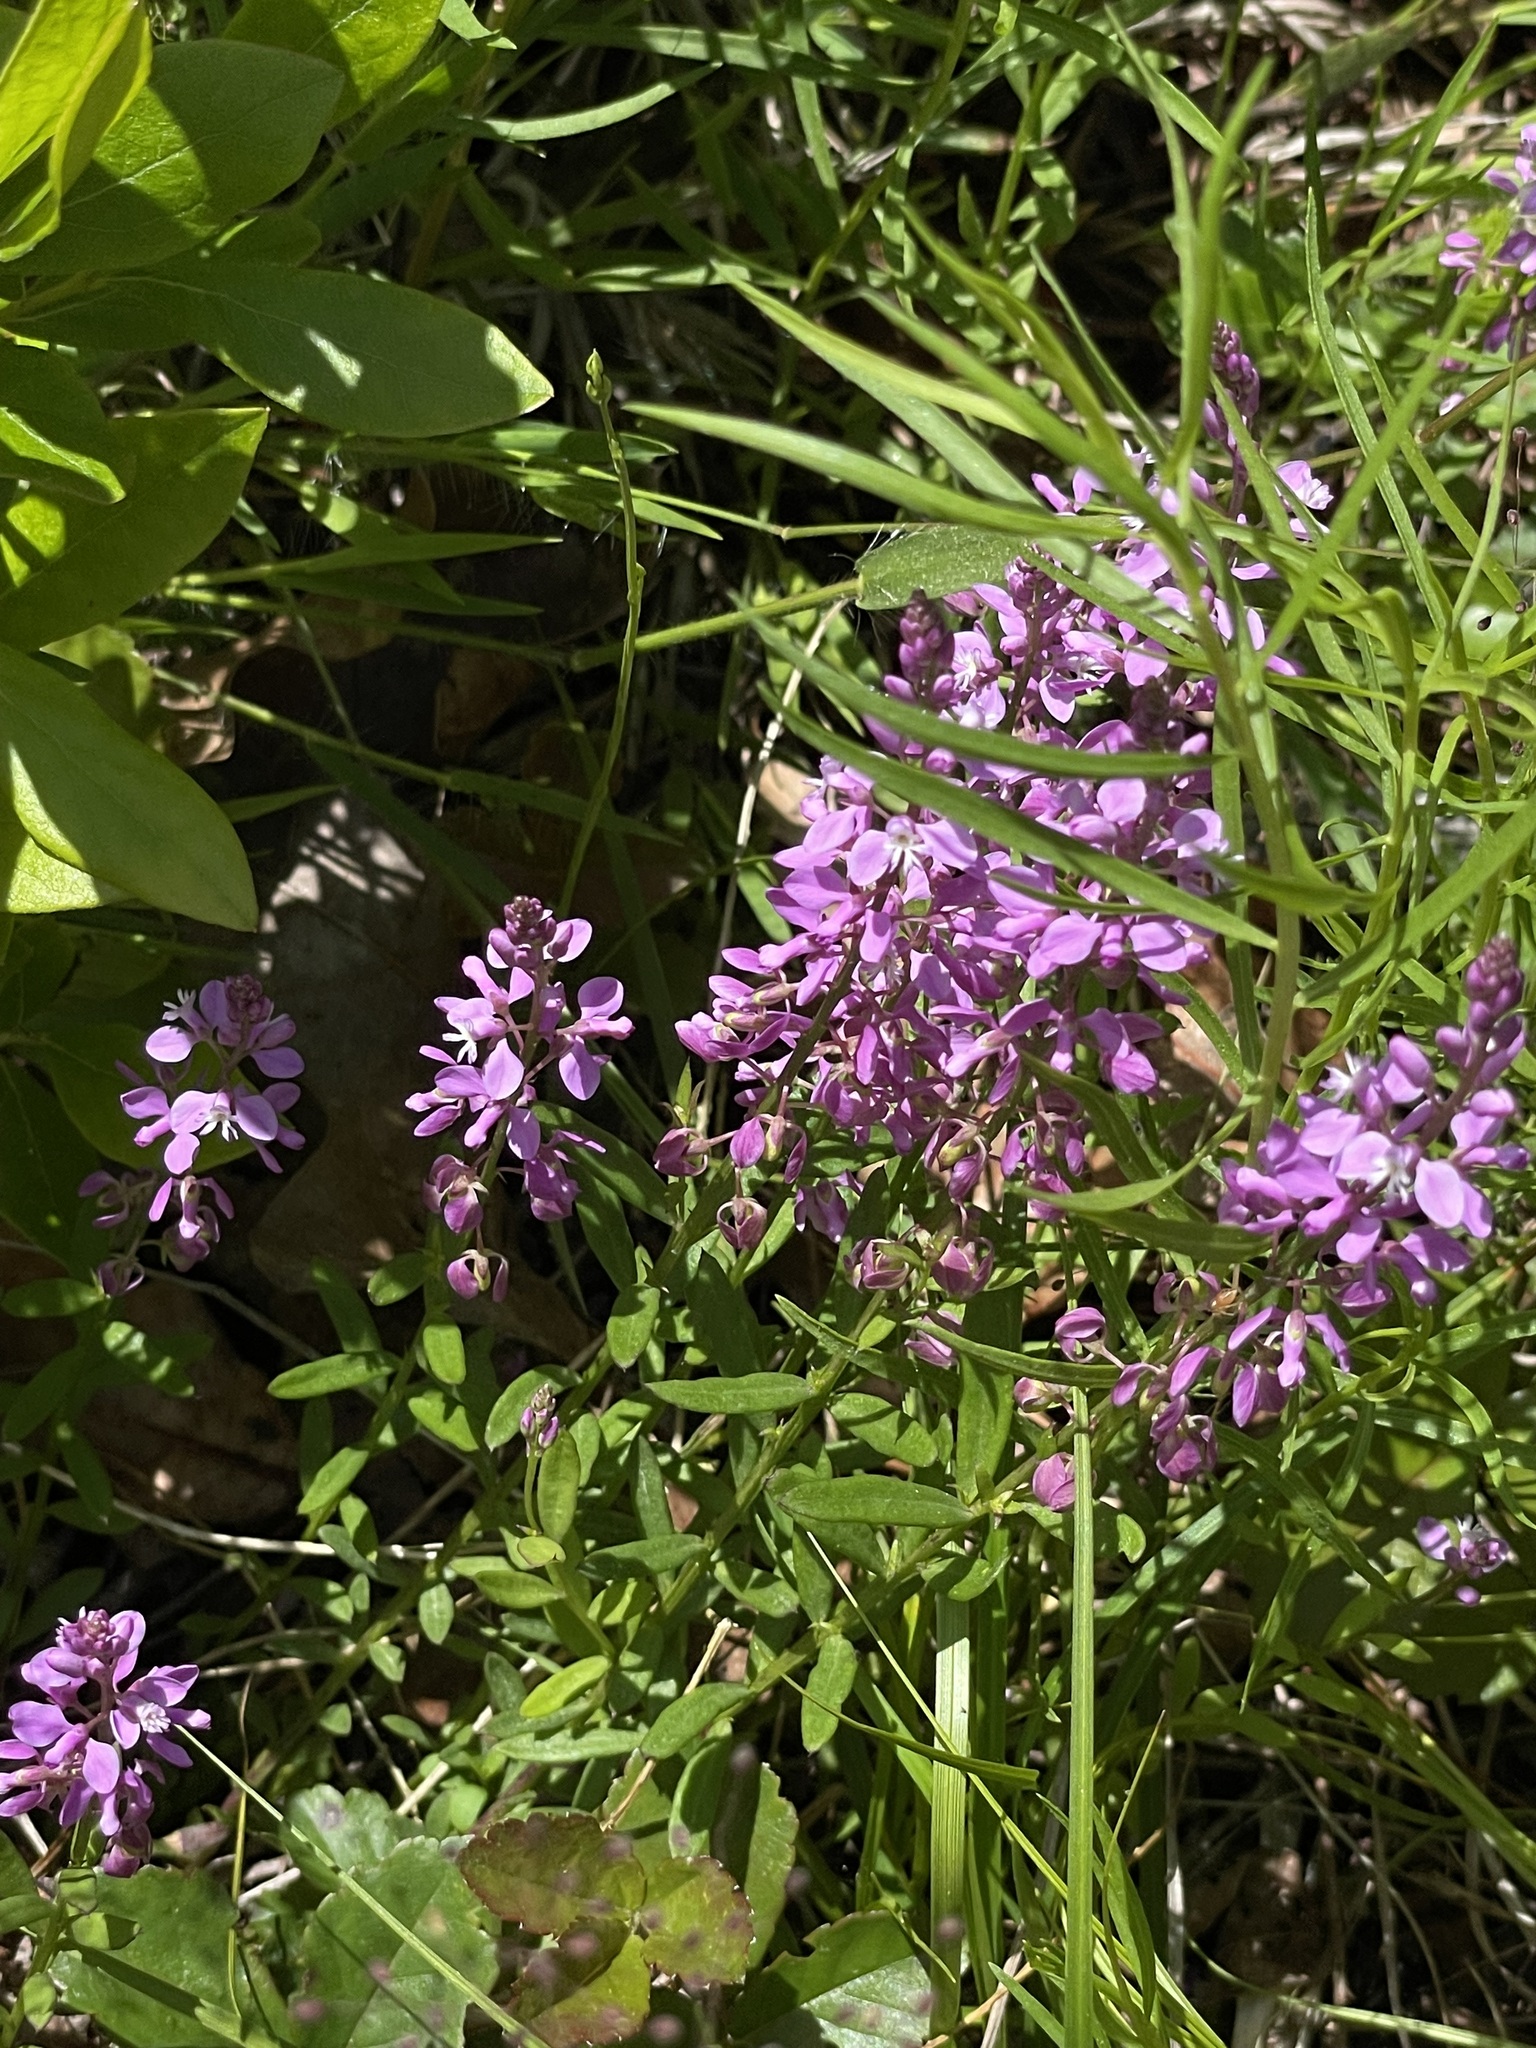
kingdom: Plantae
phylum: Tracheophyta
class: Magnoliopsida
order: Fabales
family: Polygalaceae
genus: Polygala
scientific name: Polygala polygama
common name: Bitter milkwort
